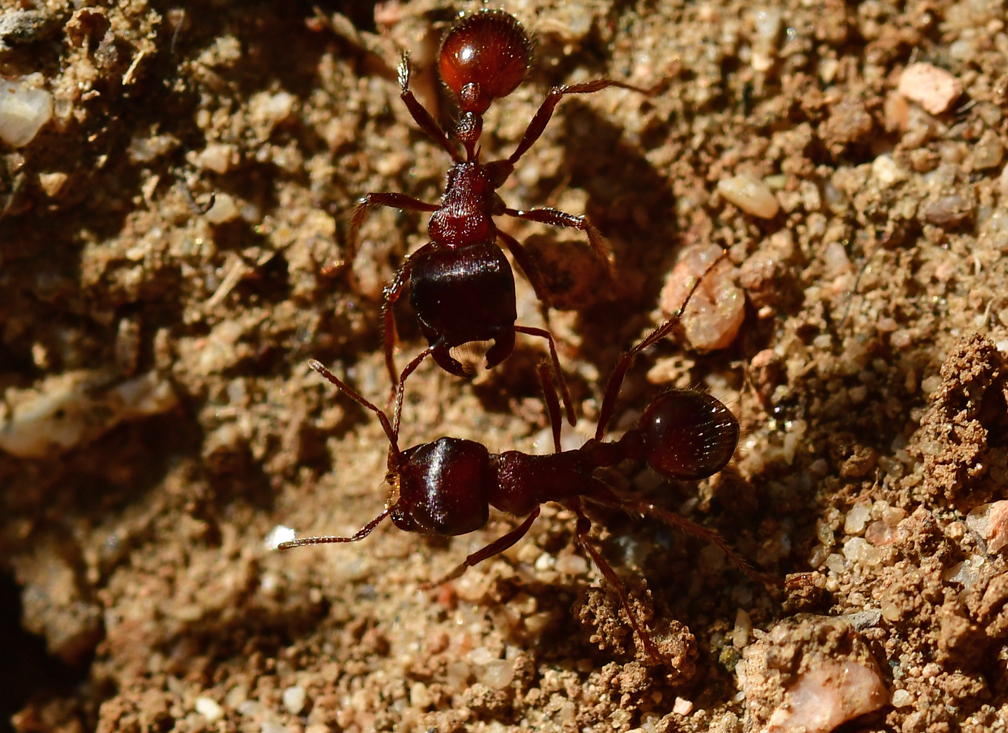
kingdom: Animalia
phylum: Arthropoda
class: Insecta
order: Hymenoptera
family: Formicidae
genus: Pogonomyrmex
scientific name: Pogonomyrmex rugosus
